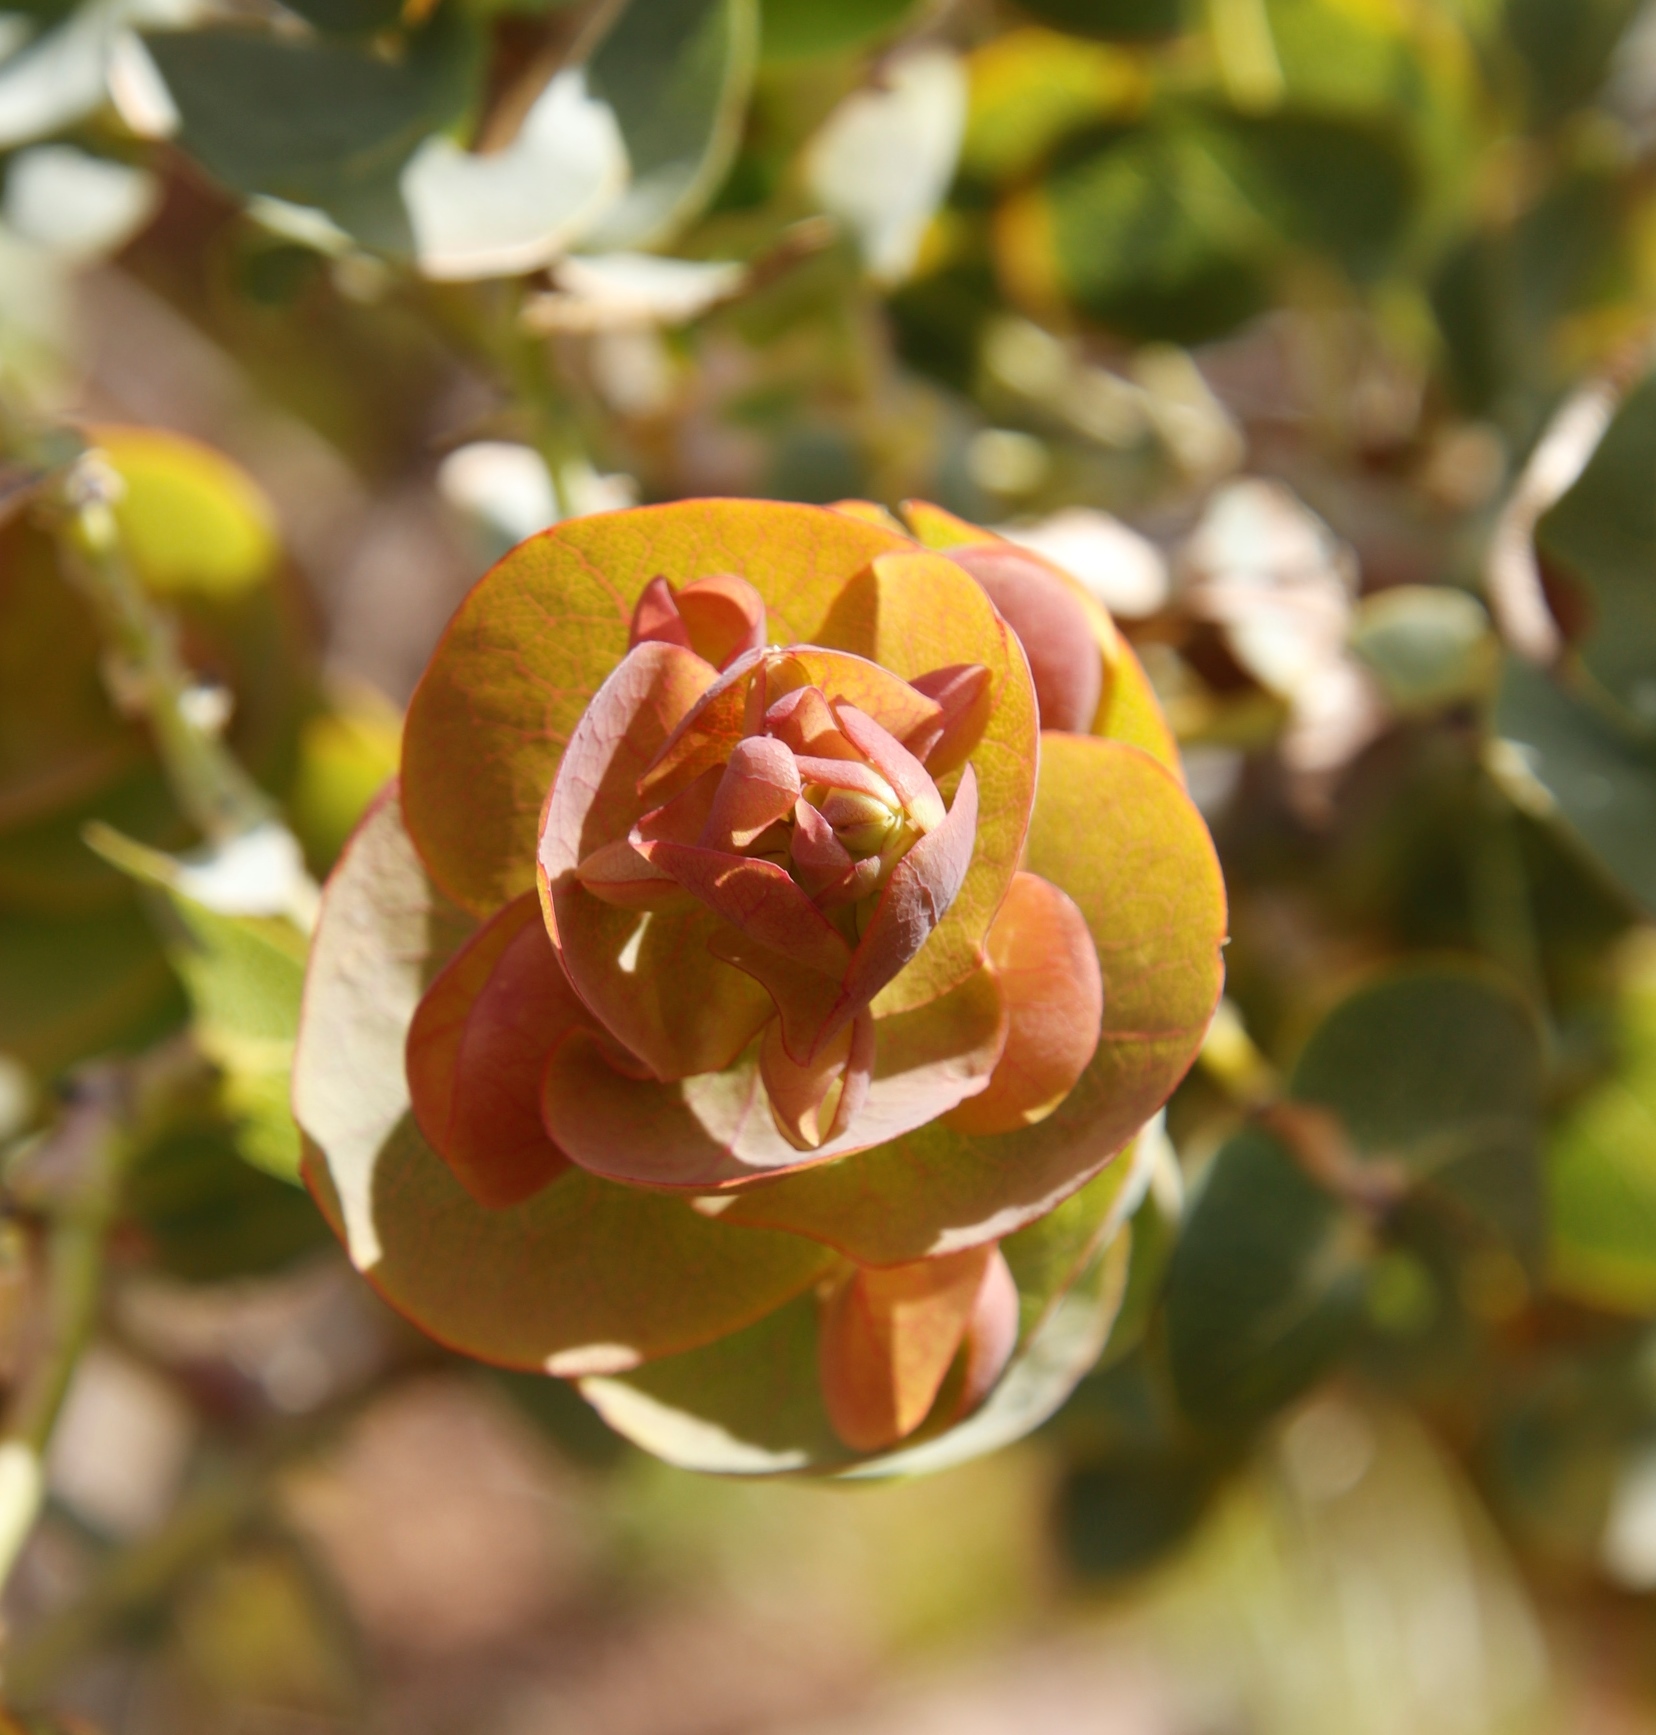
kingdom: Plantae
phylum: Tracheophyta
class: Magnoliopsida
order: Fabales
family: Fabaceae
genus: Rafnia
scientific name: Rafnia amplexicaulis
